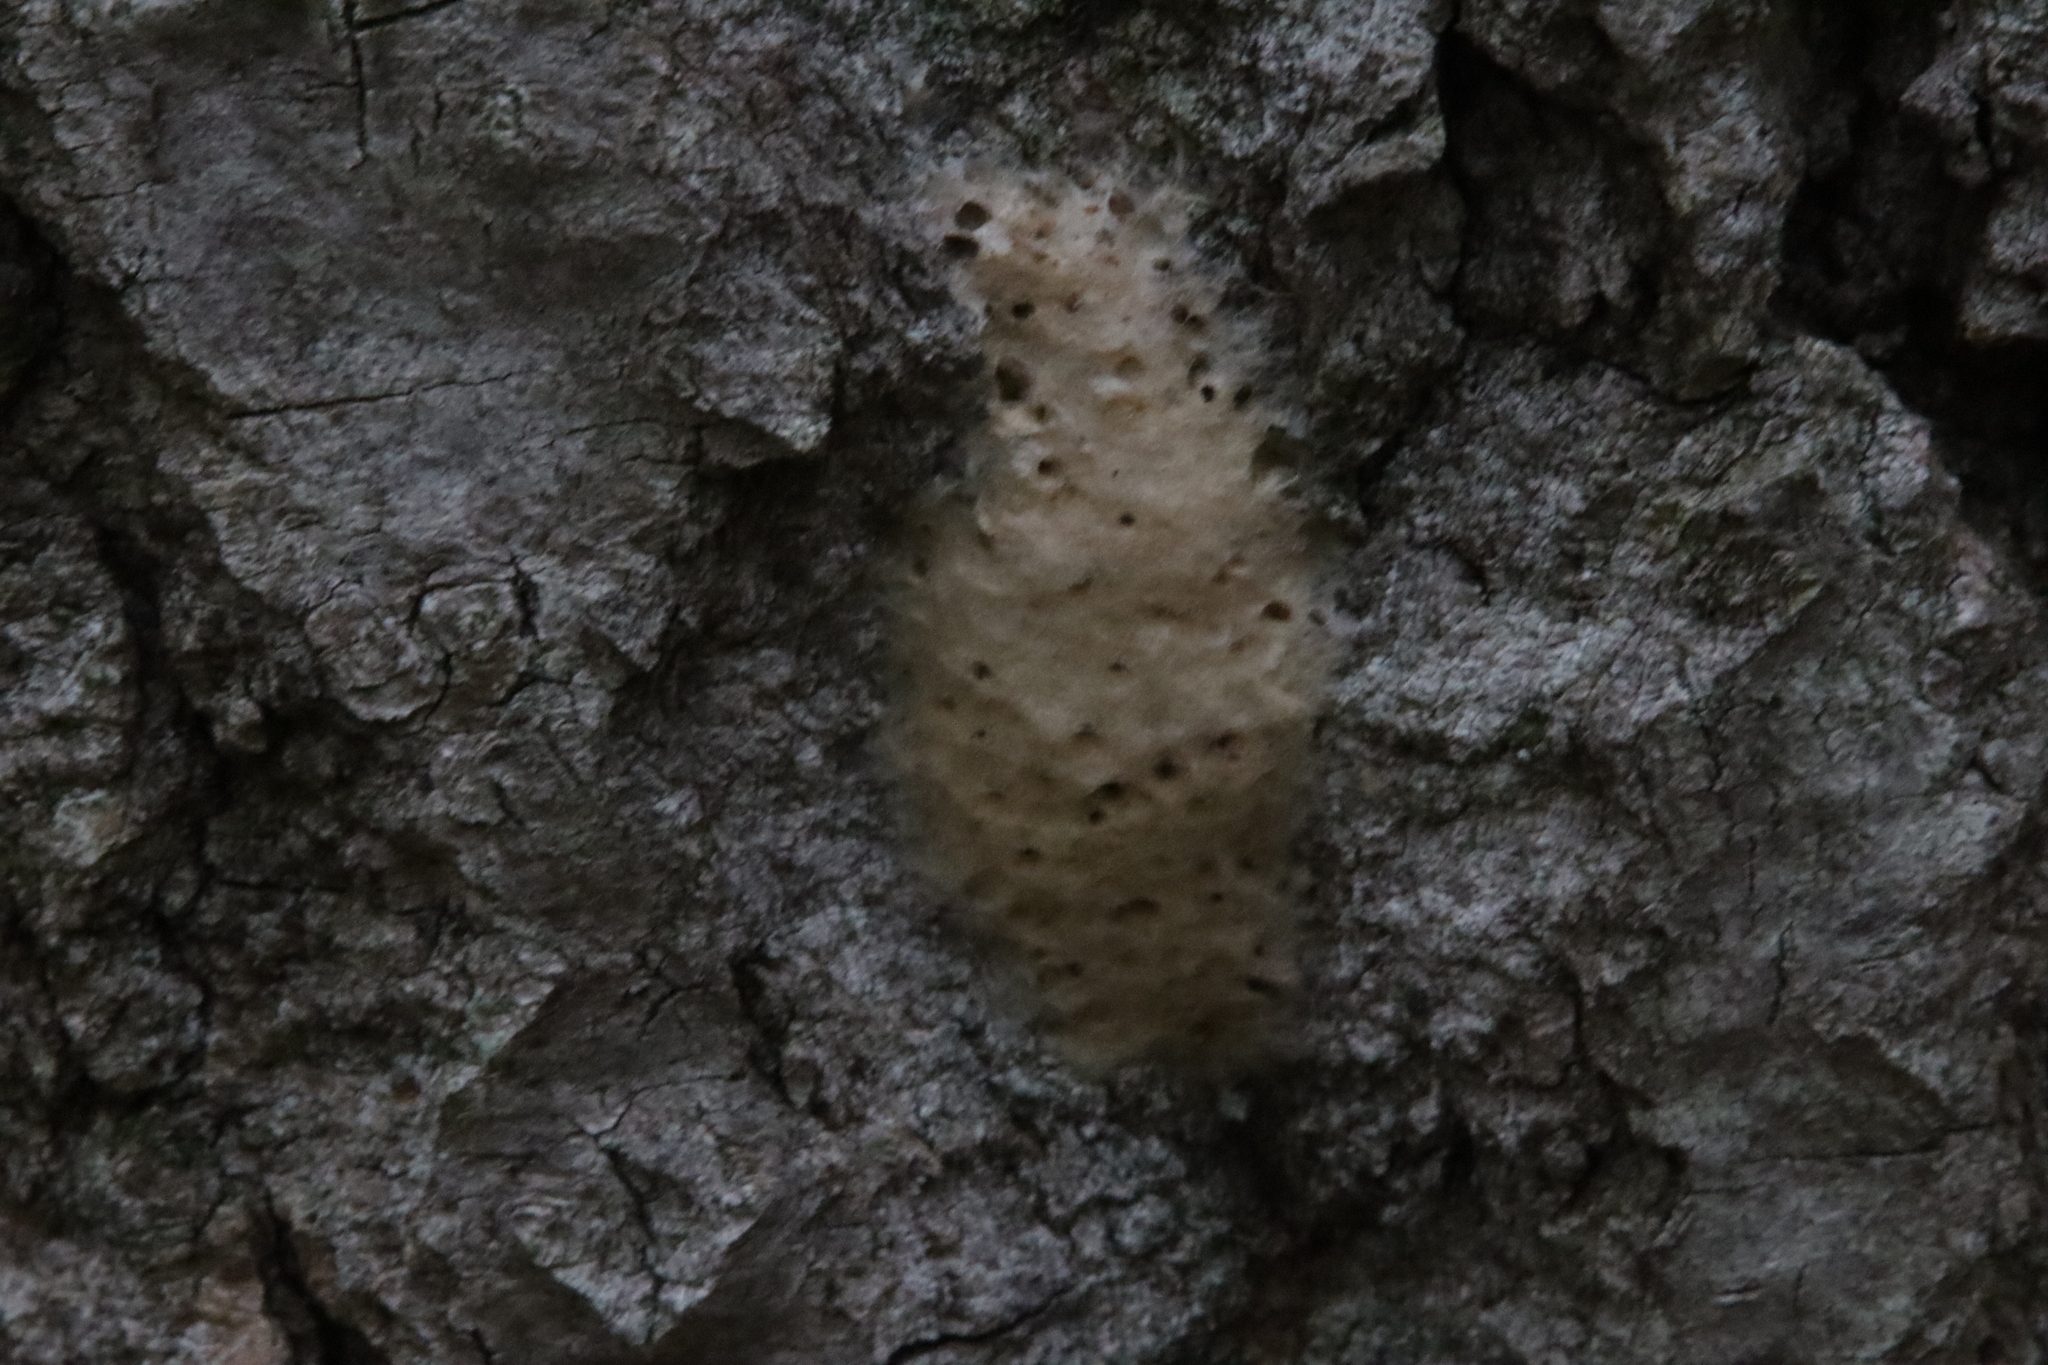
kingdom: Animalia
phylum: Arthropoda
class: Insecta
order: Lepidoptera
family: Erebidae
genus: Lymantria
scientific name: Lymantria dispar
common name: Gypsy moth
